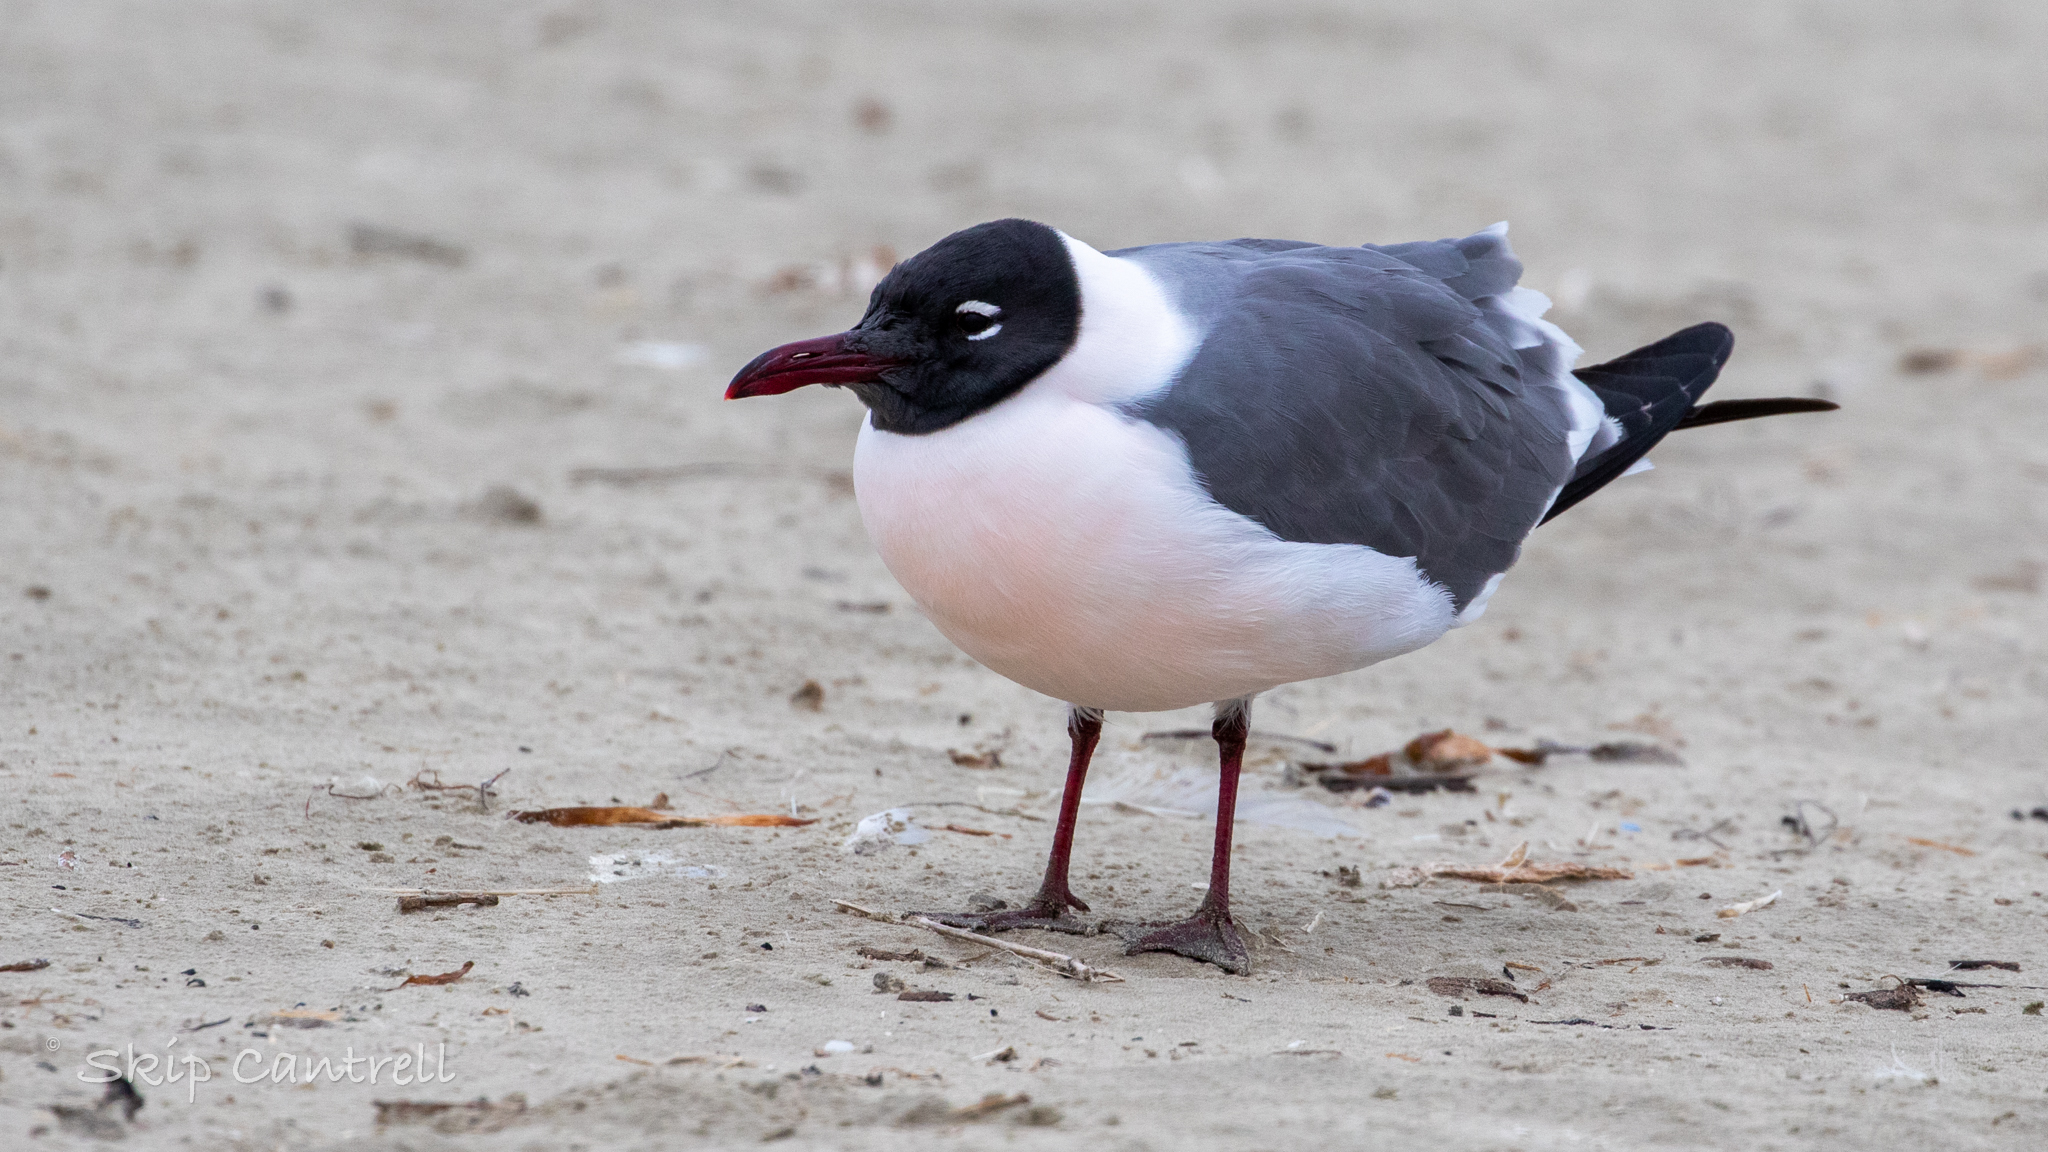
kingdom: Animalia
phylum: Chordata
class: Aves
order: Charadriiformes
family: Laridae
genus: Leucophaeus
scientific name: Leucophaeus atricilla
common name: Laughing gull
